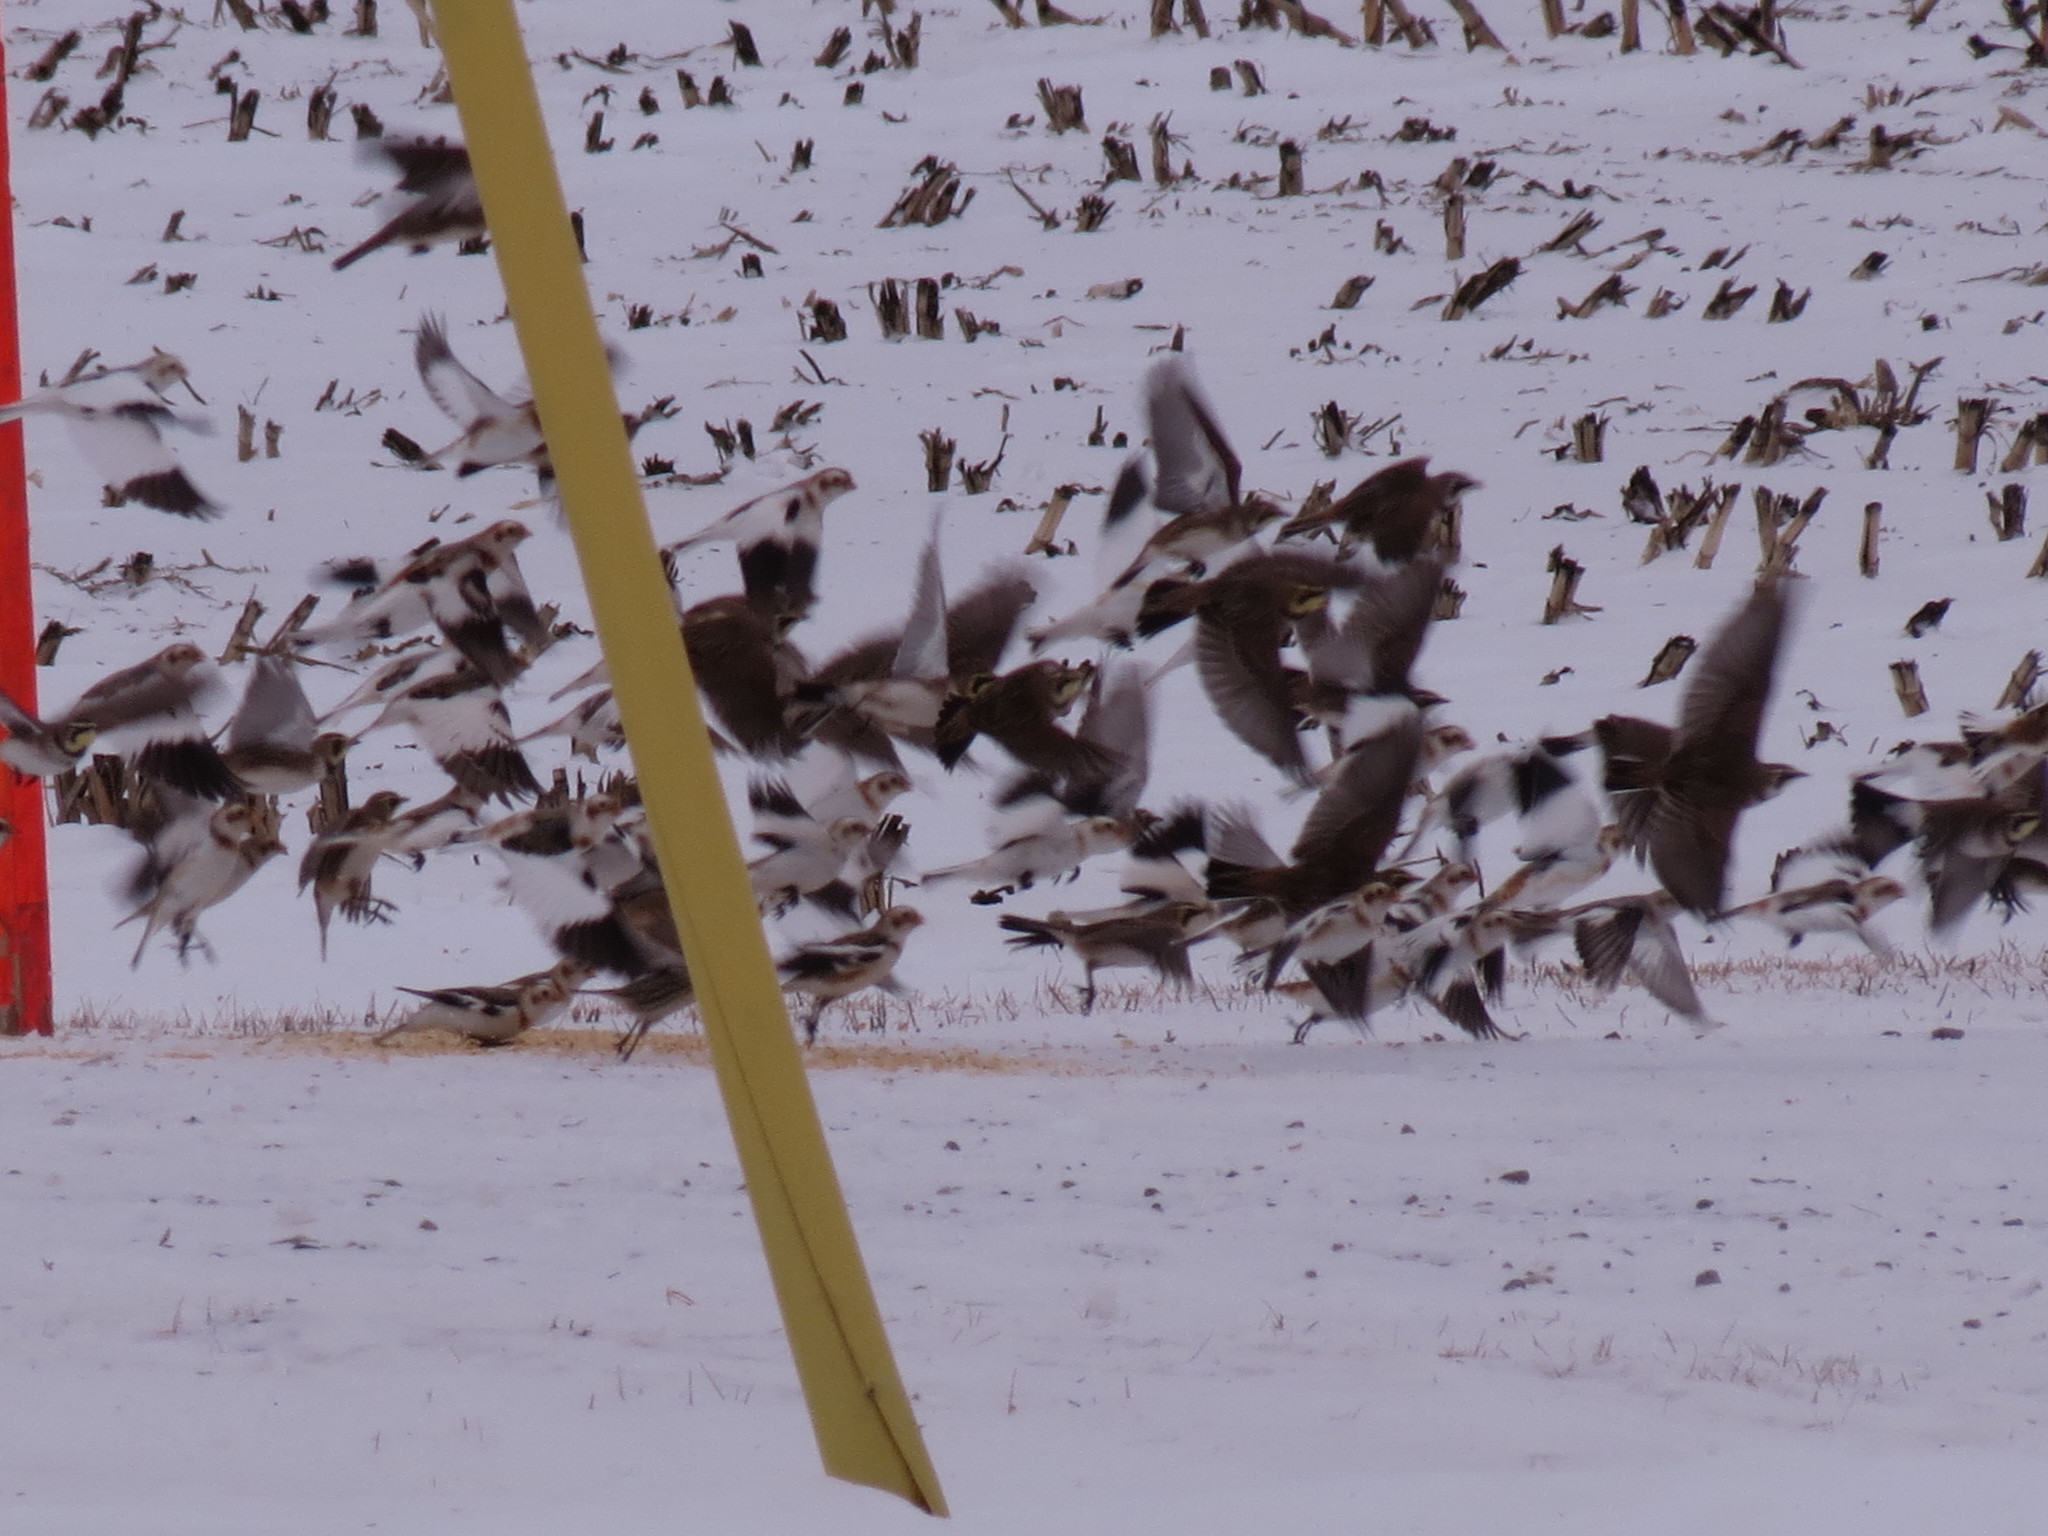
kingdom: Animalia
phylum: Chordata
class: Aves
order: Passeriformes
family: Calcariidae
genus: Plectrophenax
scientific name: Plectrophenax nivalis
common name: Snow bunting
